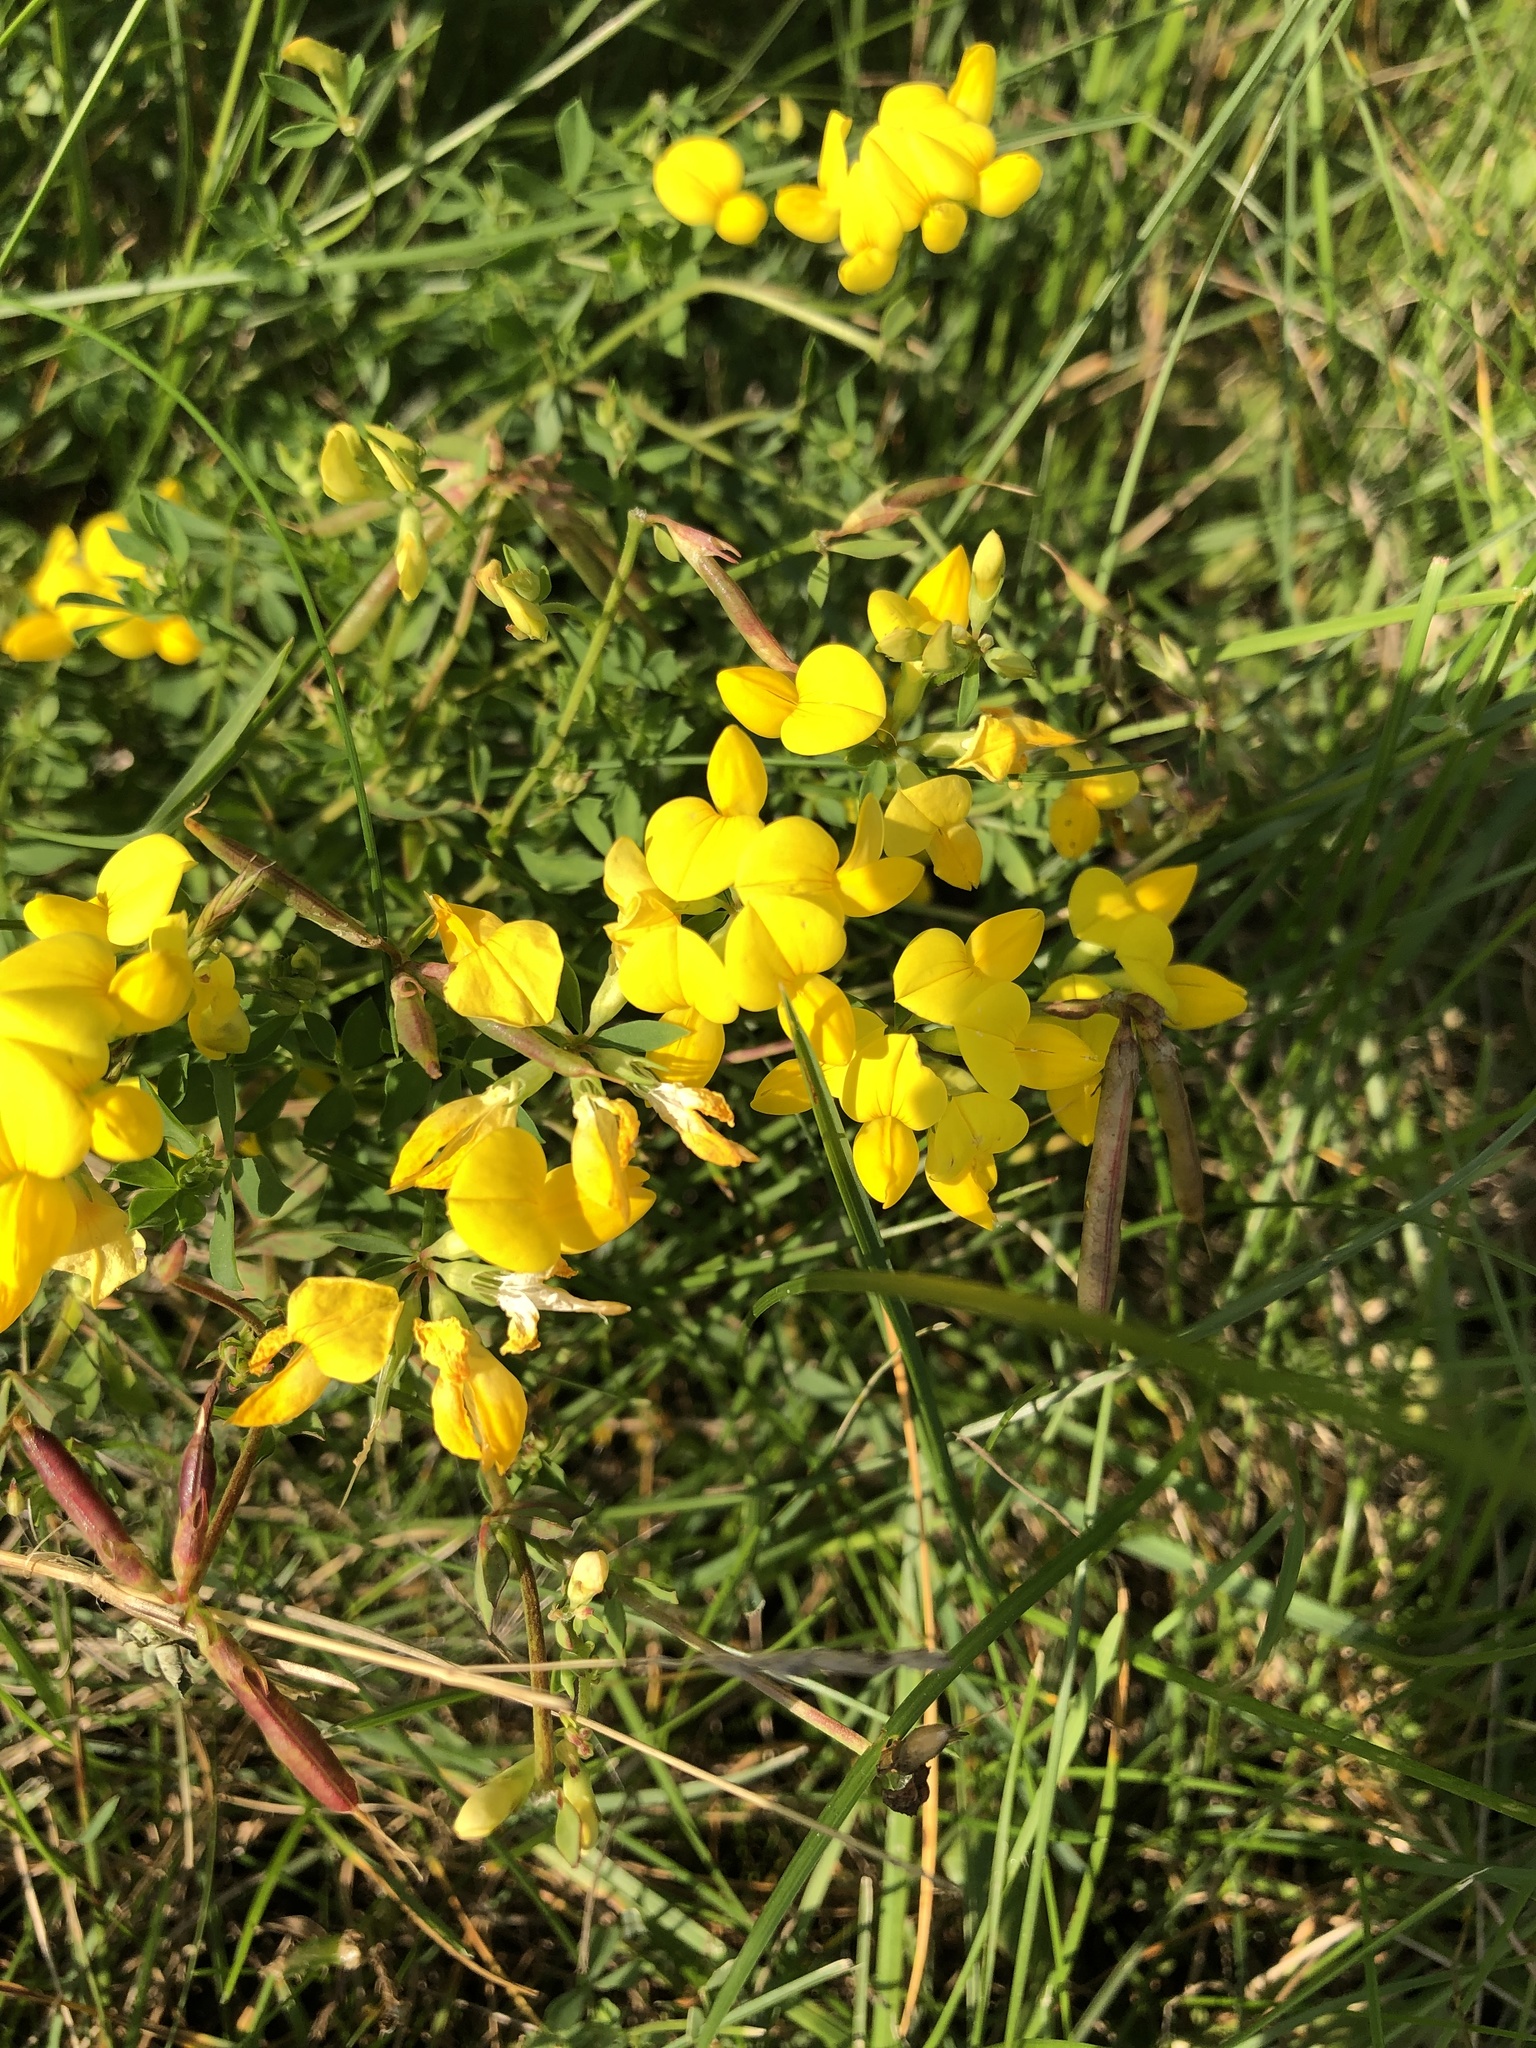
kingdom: Plantae
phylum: Tracheophyta
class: Magnoliopsida
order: Fabales
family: Fabaceae
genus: Lotus
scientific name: Lotus corniculatus
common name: Common bird's-foot-trefoil
